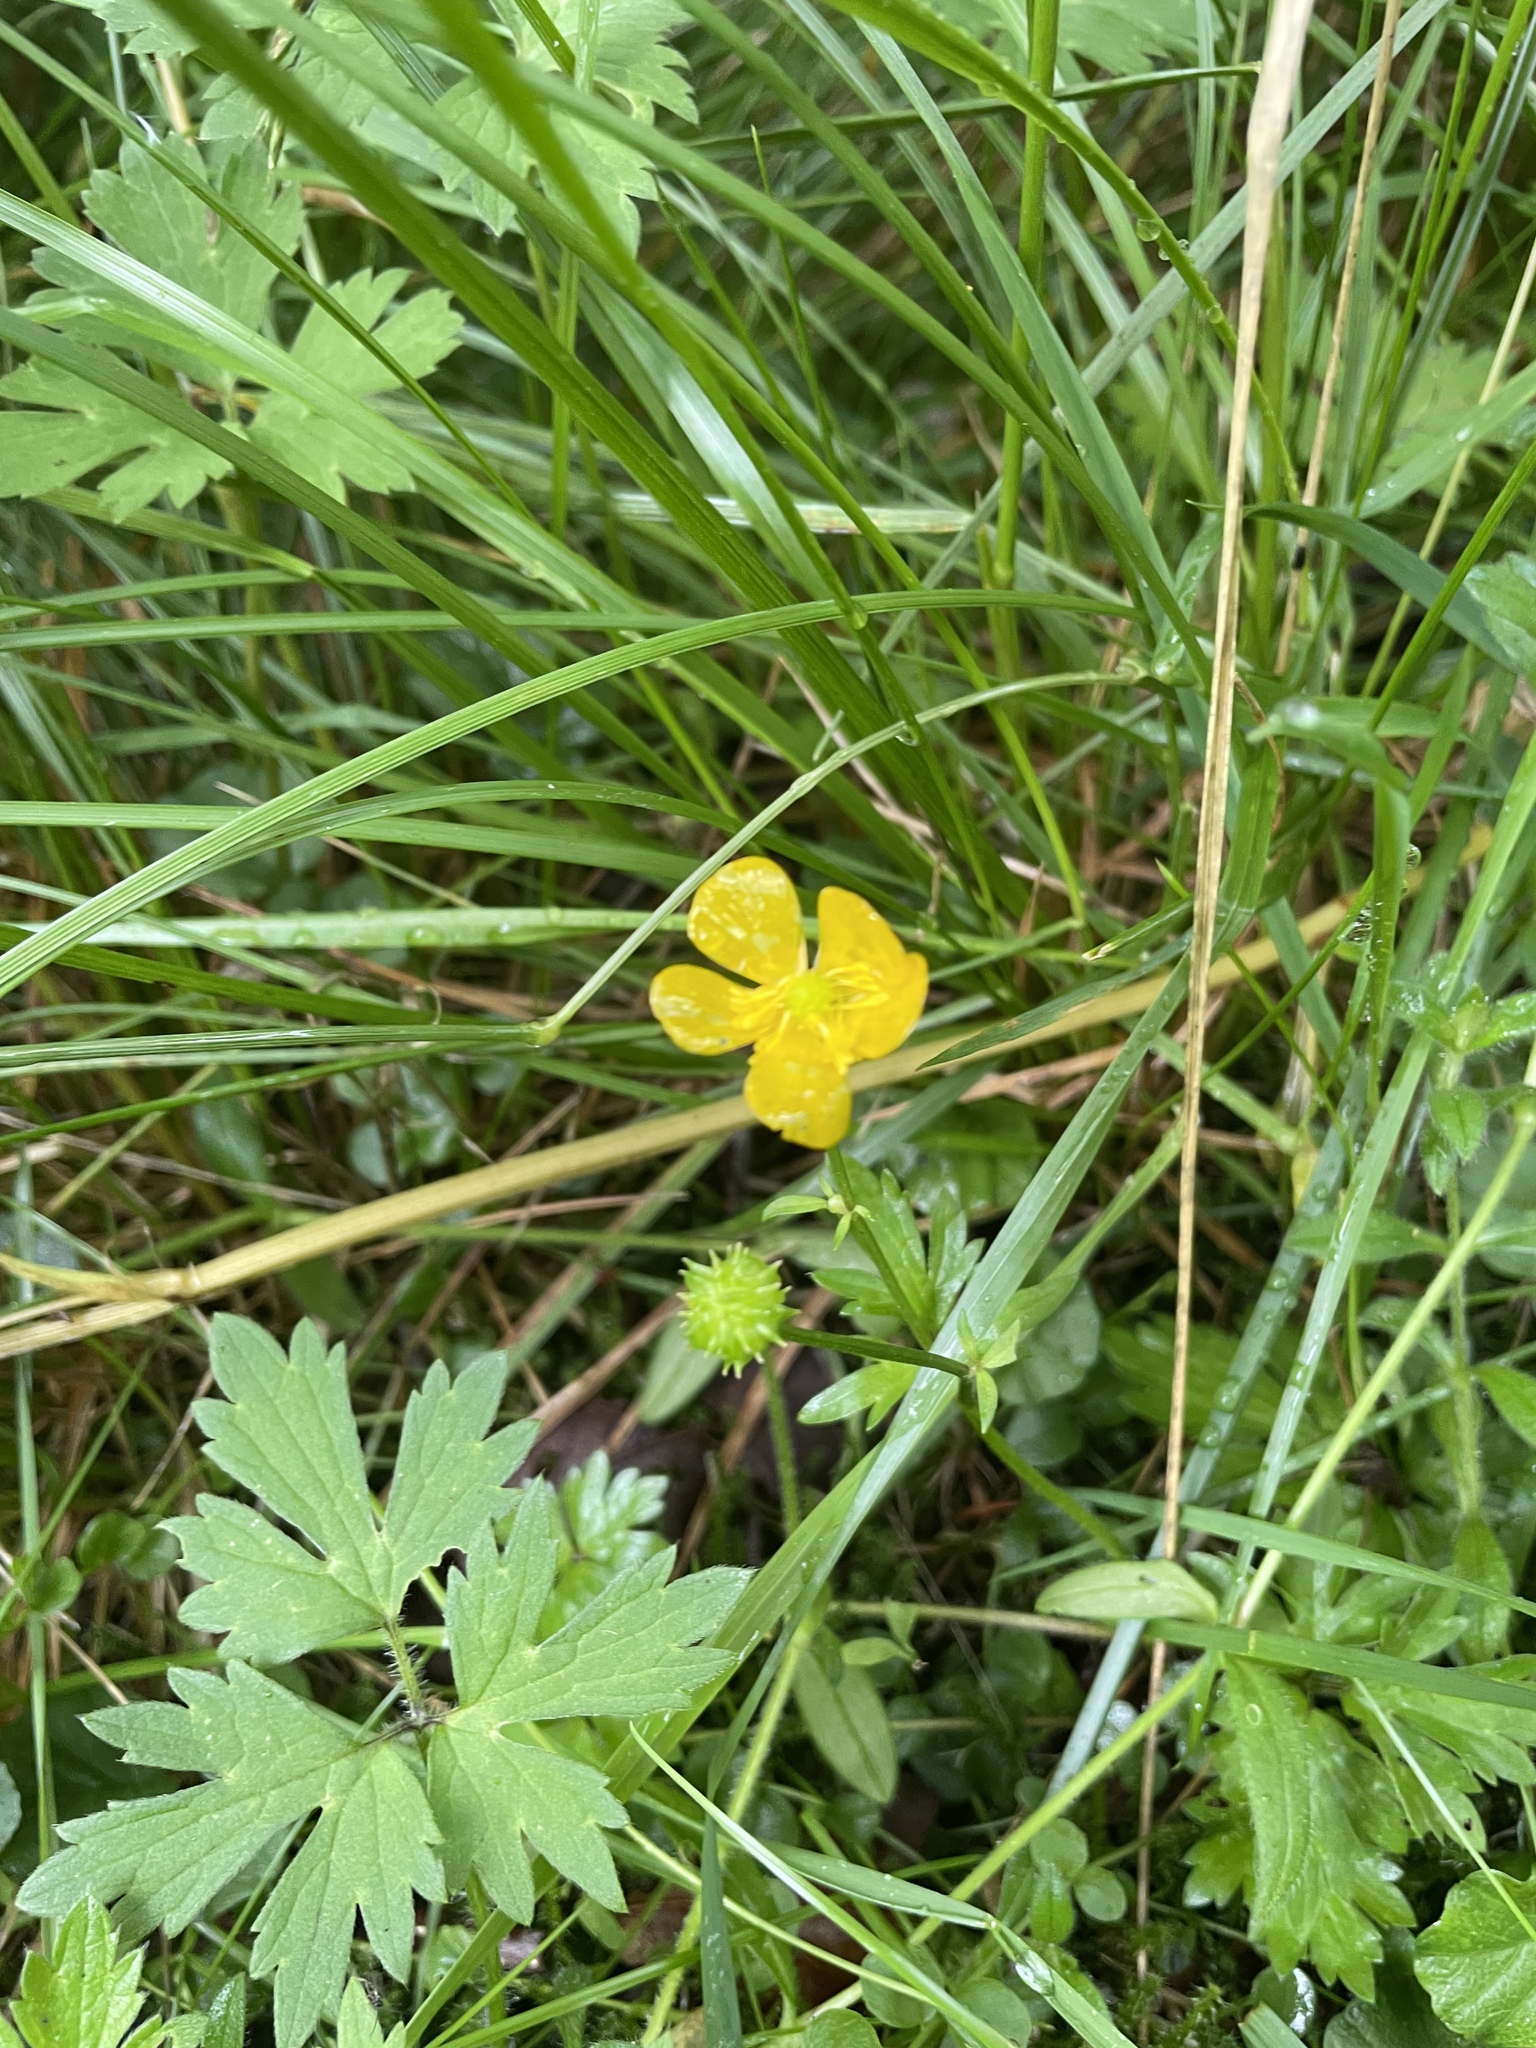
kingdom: Plantae
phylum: Tracheophyta
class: Magnoliopsida
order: Ranunculales
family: Ranunculaceae
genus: Ranunculus
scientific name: Ranunculus repens
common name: Creeping buttercup
